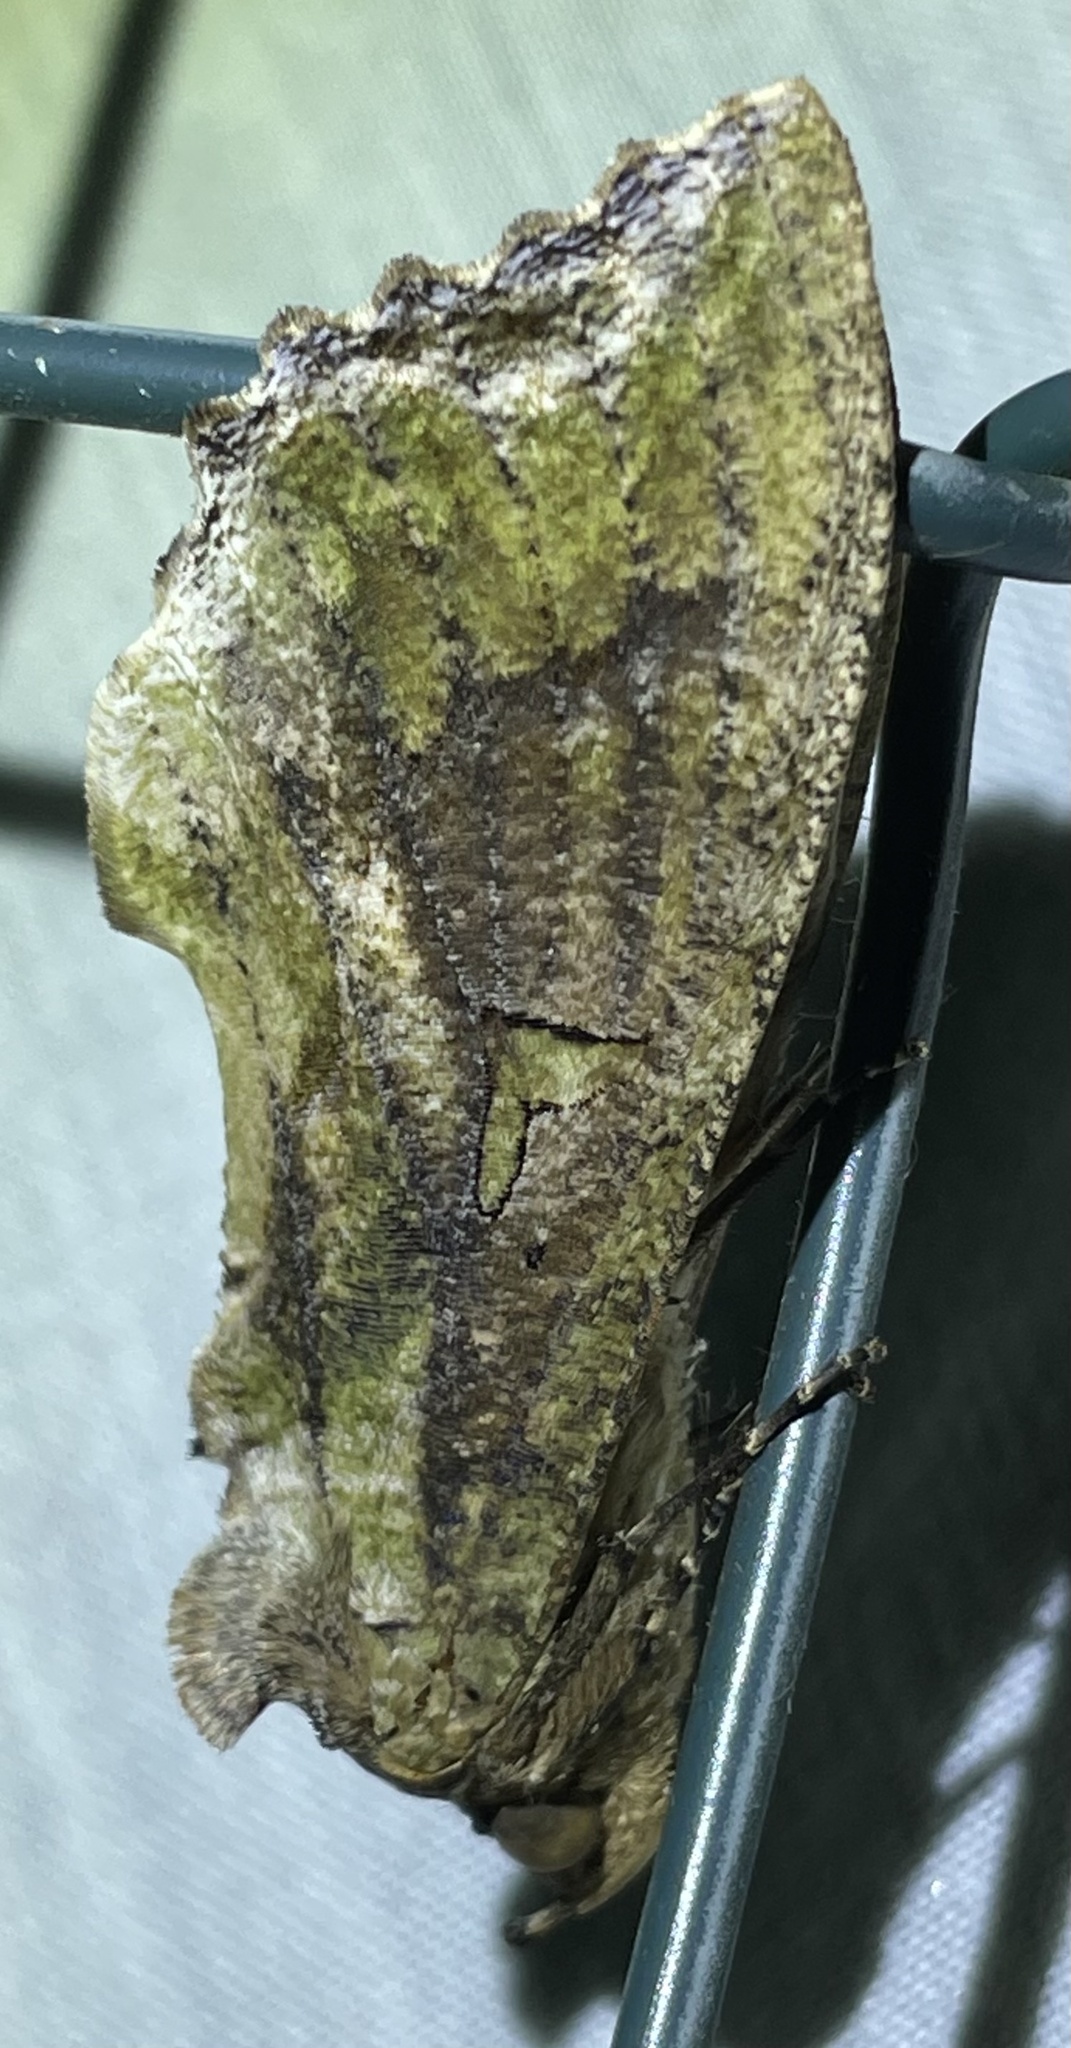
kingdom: Animalia
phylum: Arthropoda
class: Insecta
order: Lepidoptera
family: Erebidae
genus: Eudocima
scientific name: Eudocima lequeuxi
